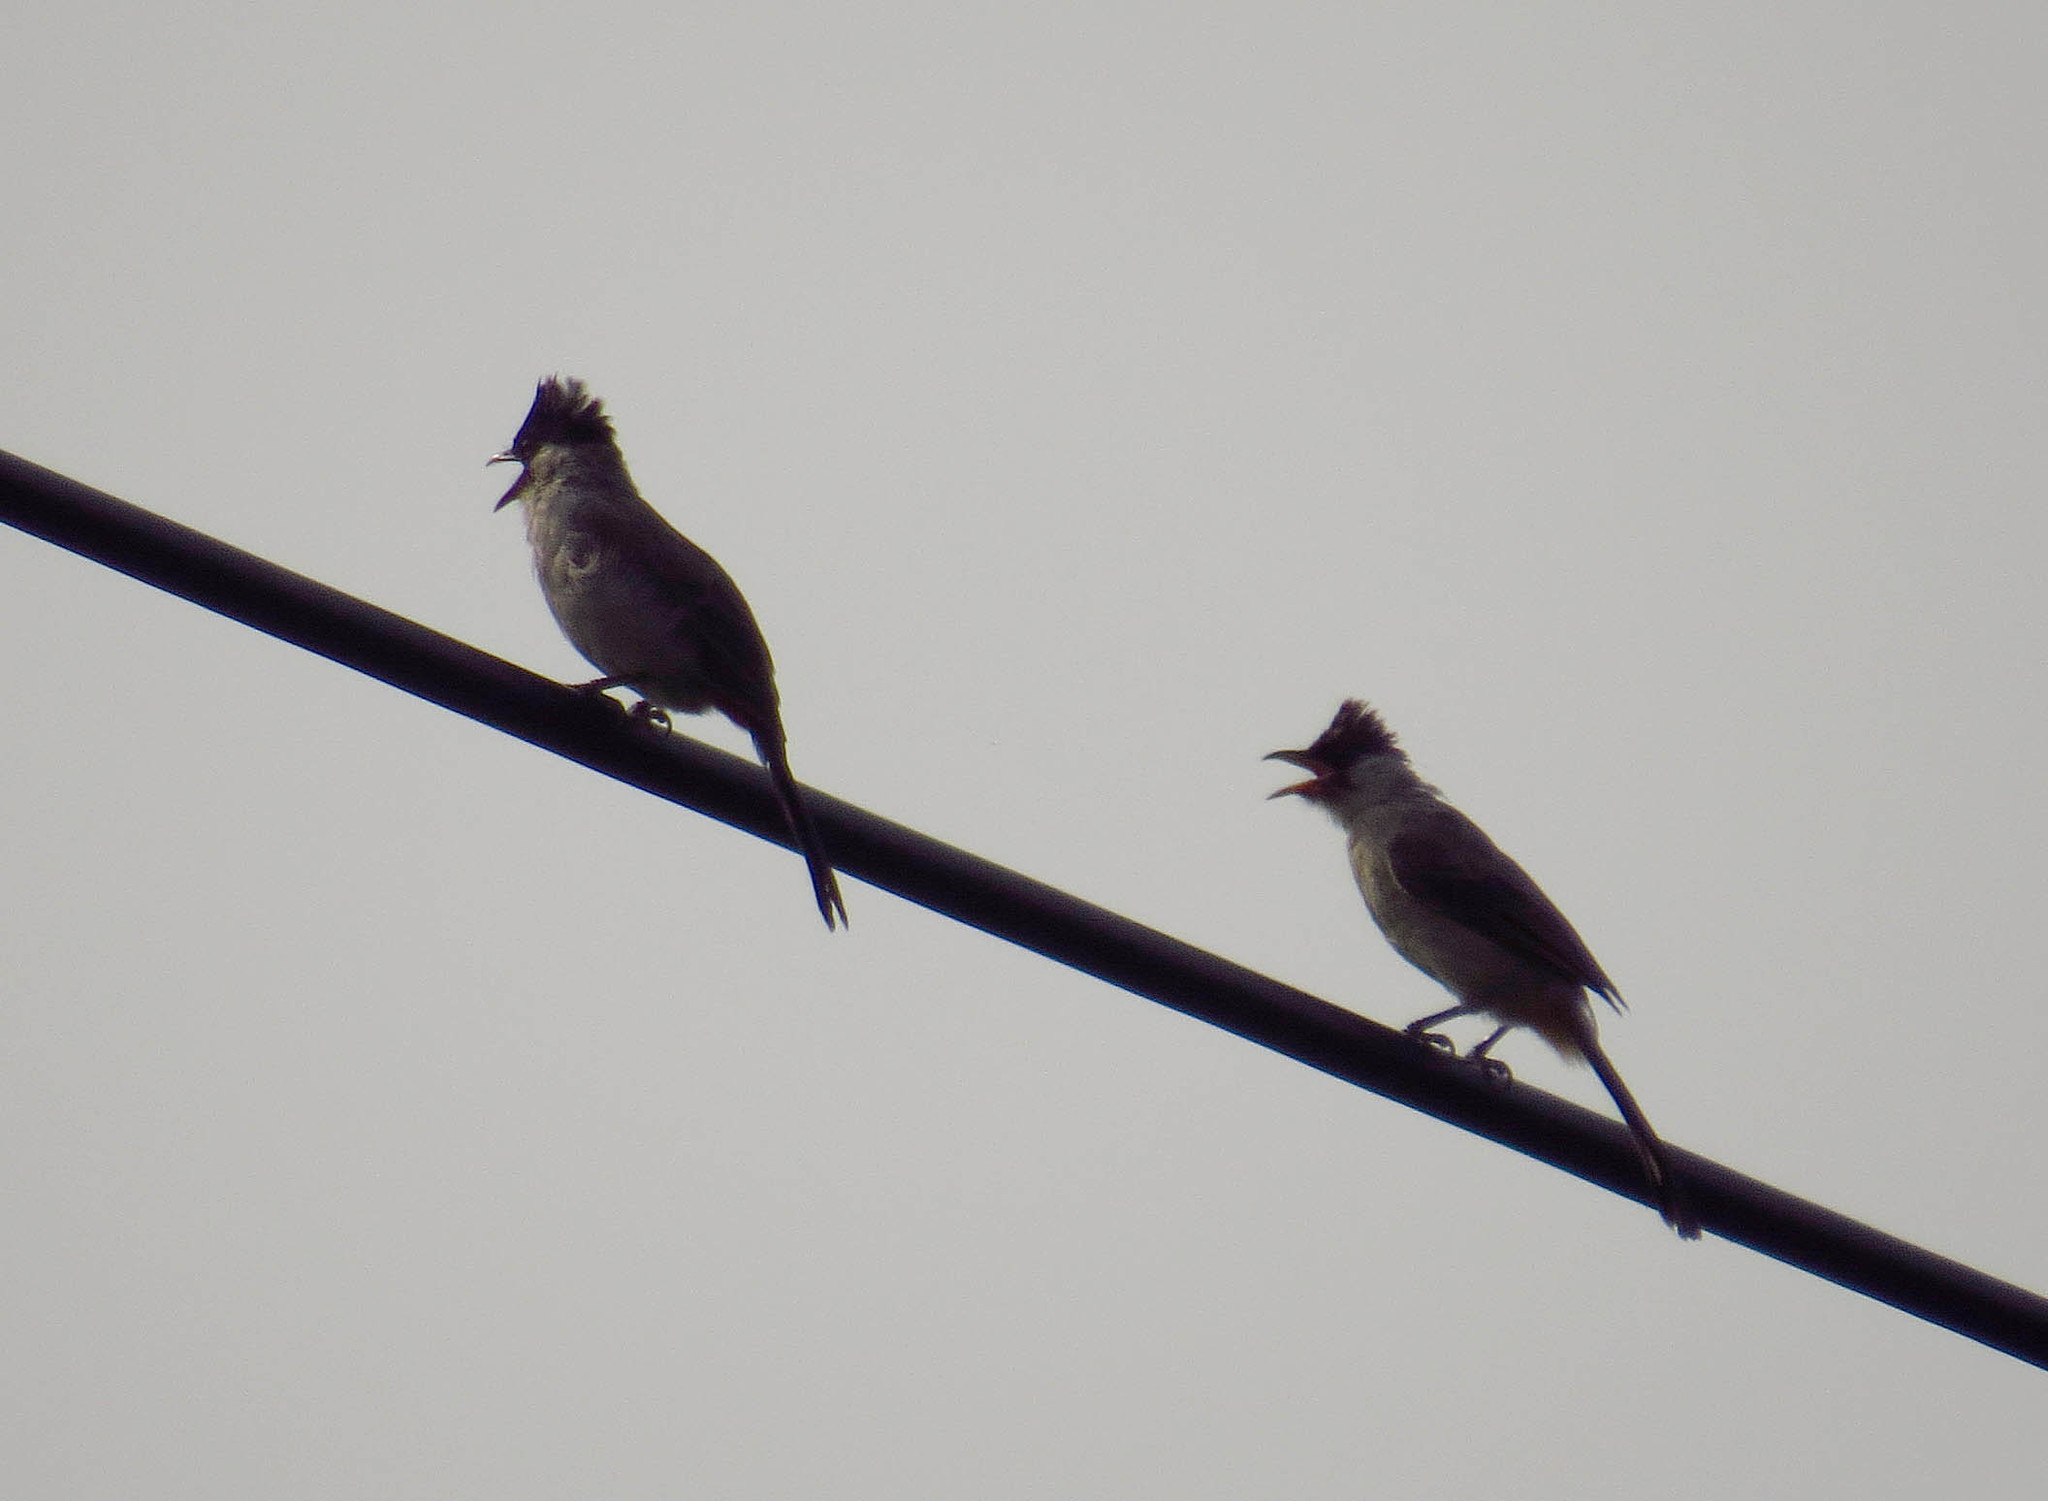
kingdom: Animalia
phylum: Chordata
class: Aves
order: Passeriformes
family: Pycnonotidae
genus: Pycnonotus
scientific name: Pycnonotus aurigaster
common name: Sooty-headed bulbul
